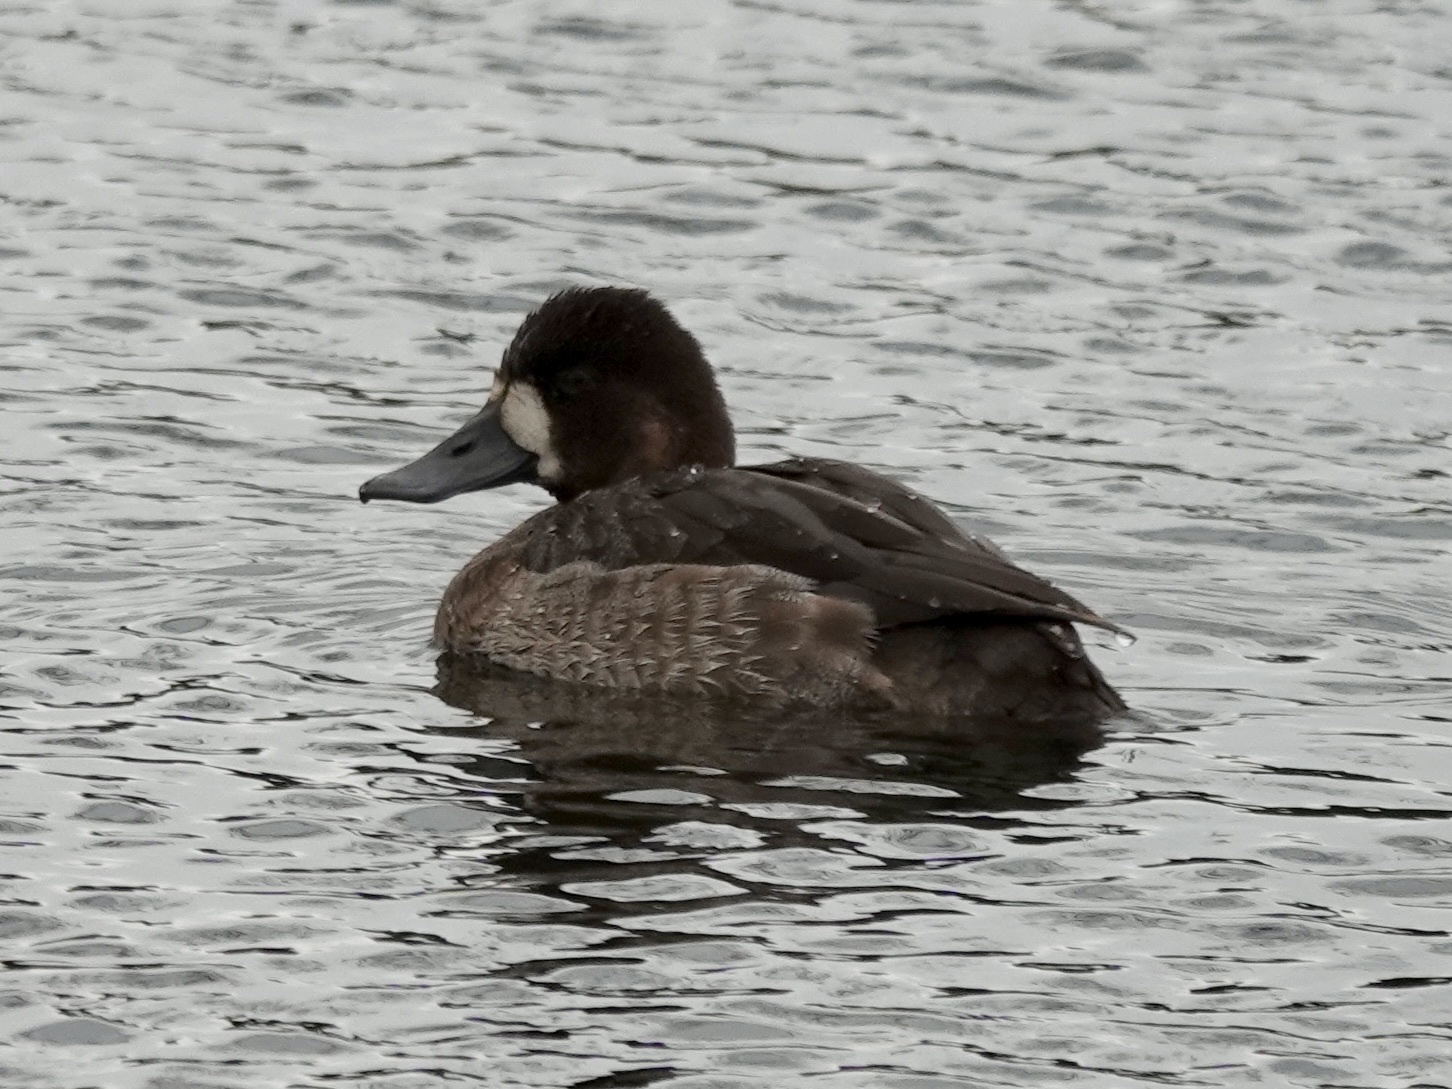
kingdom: Animalia
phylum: Chordata
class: Aves
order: Anseriformes
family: Anatidae
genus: Aythya
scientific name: Aythya affinis
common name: Lesser scaup
